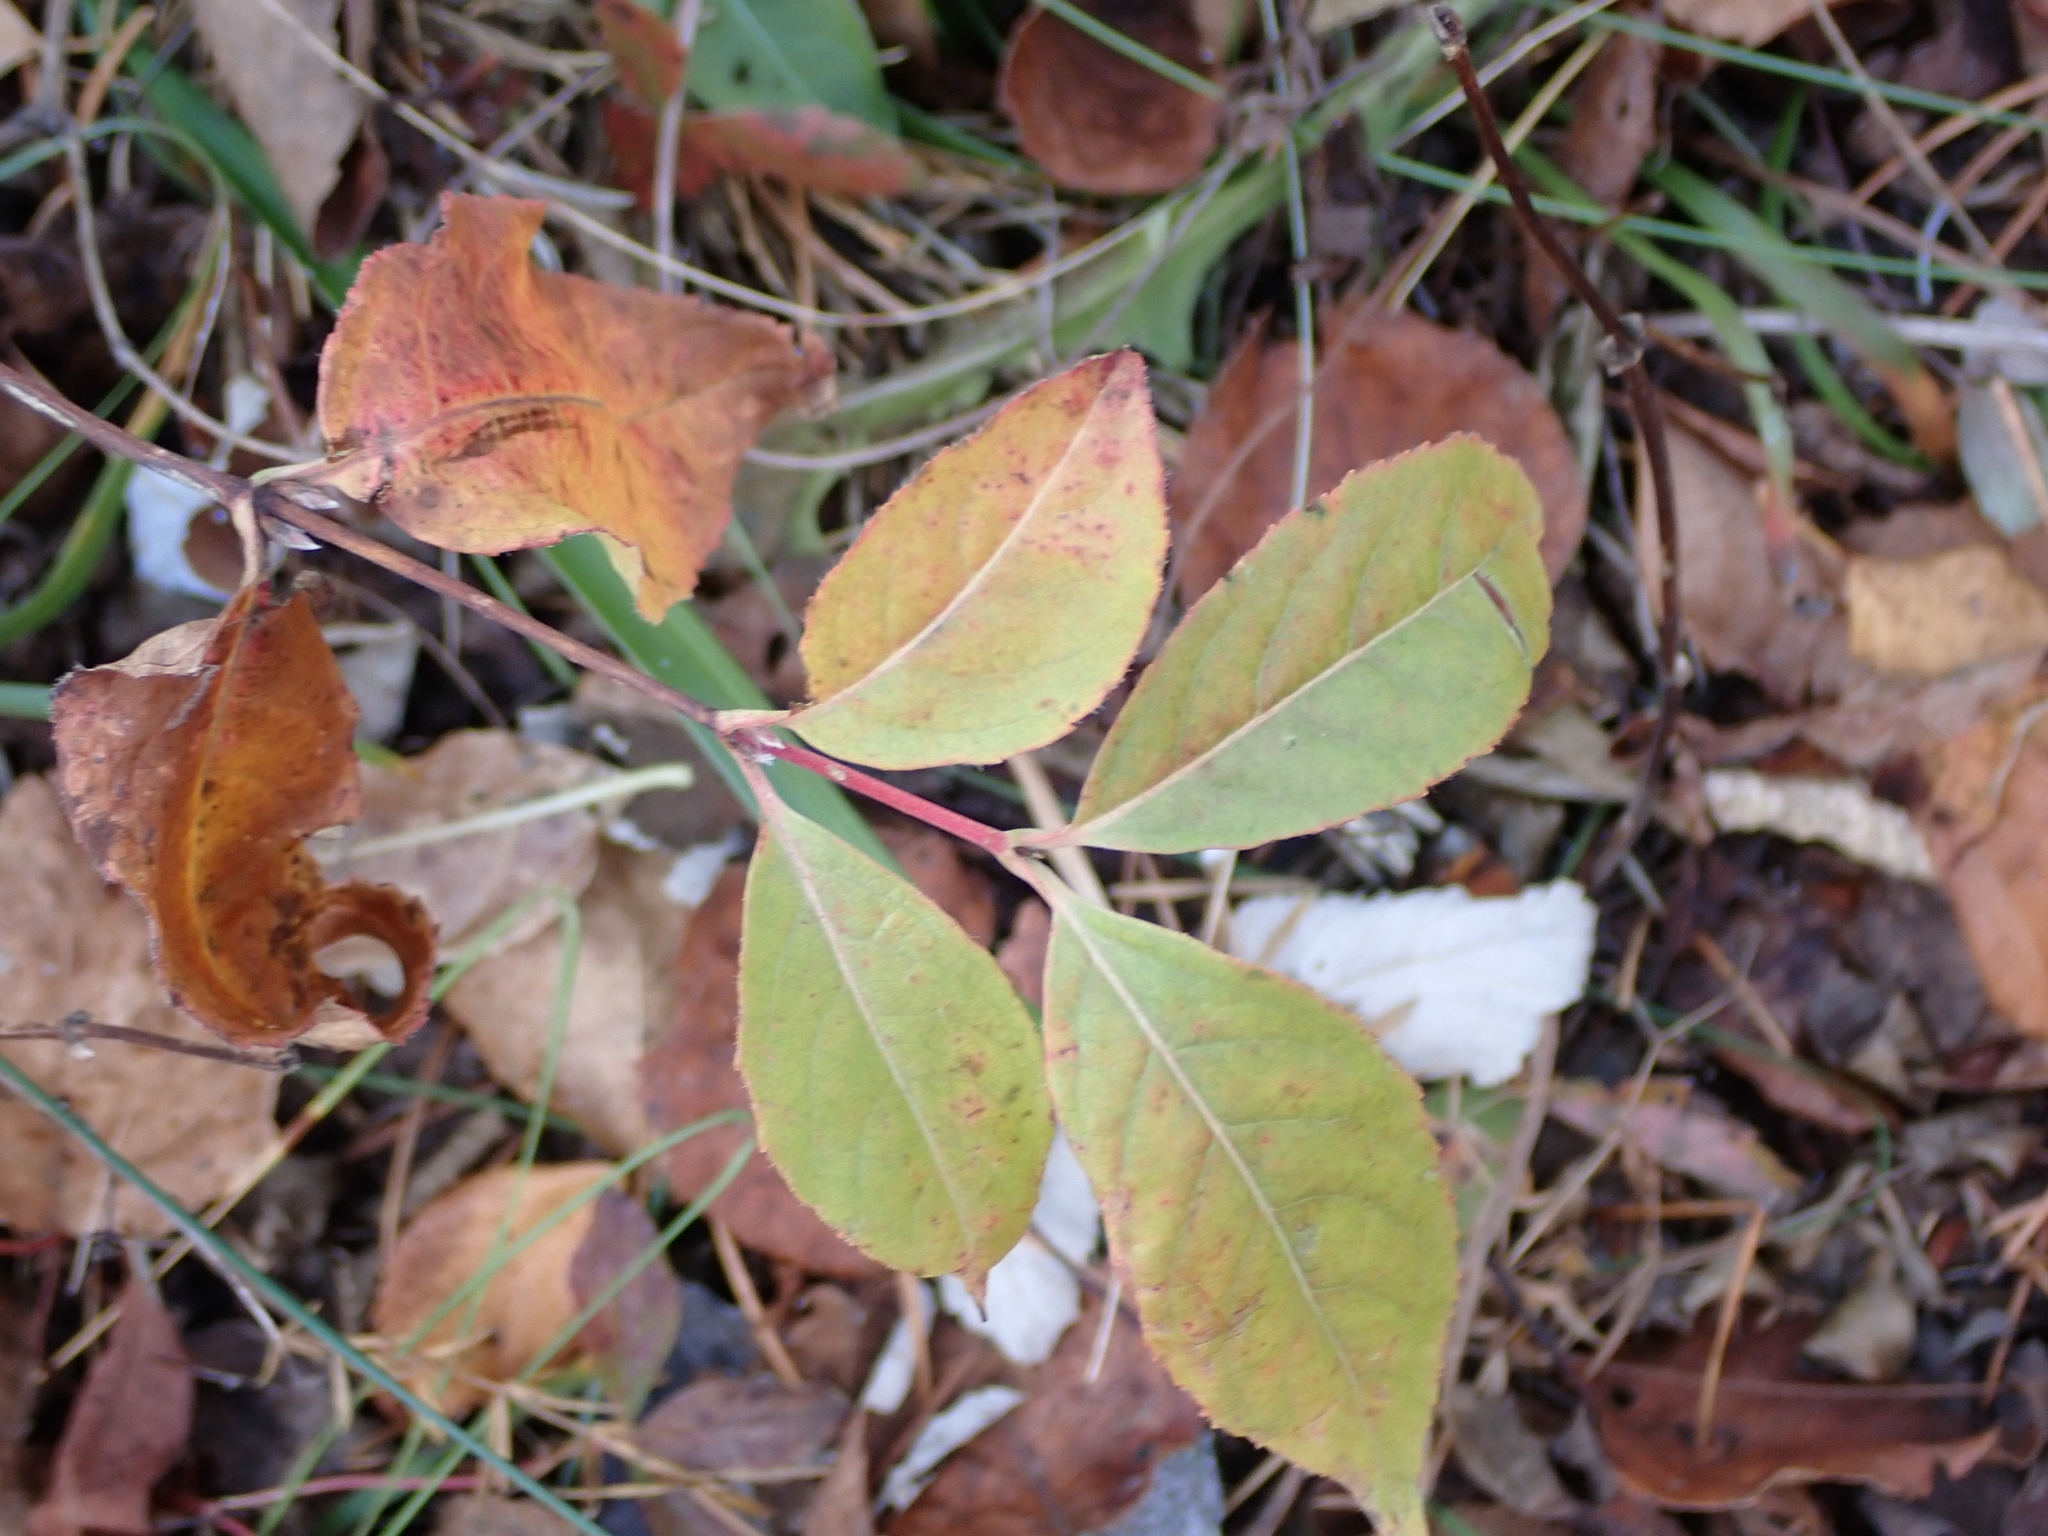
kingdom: Plantae
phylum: Tracheophyta
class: Magnoliopsida
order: Dipsacales
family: Caprifoliaceae
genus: Diervilla
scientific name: Diervilla lonicera
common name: Bush-honeysuckle
